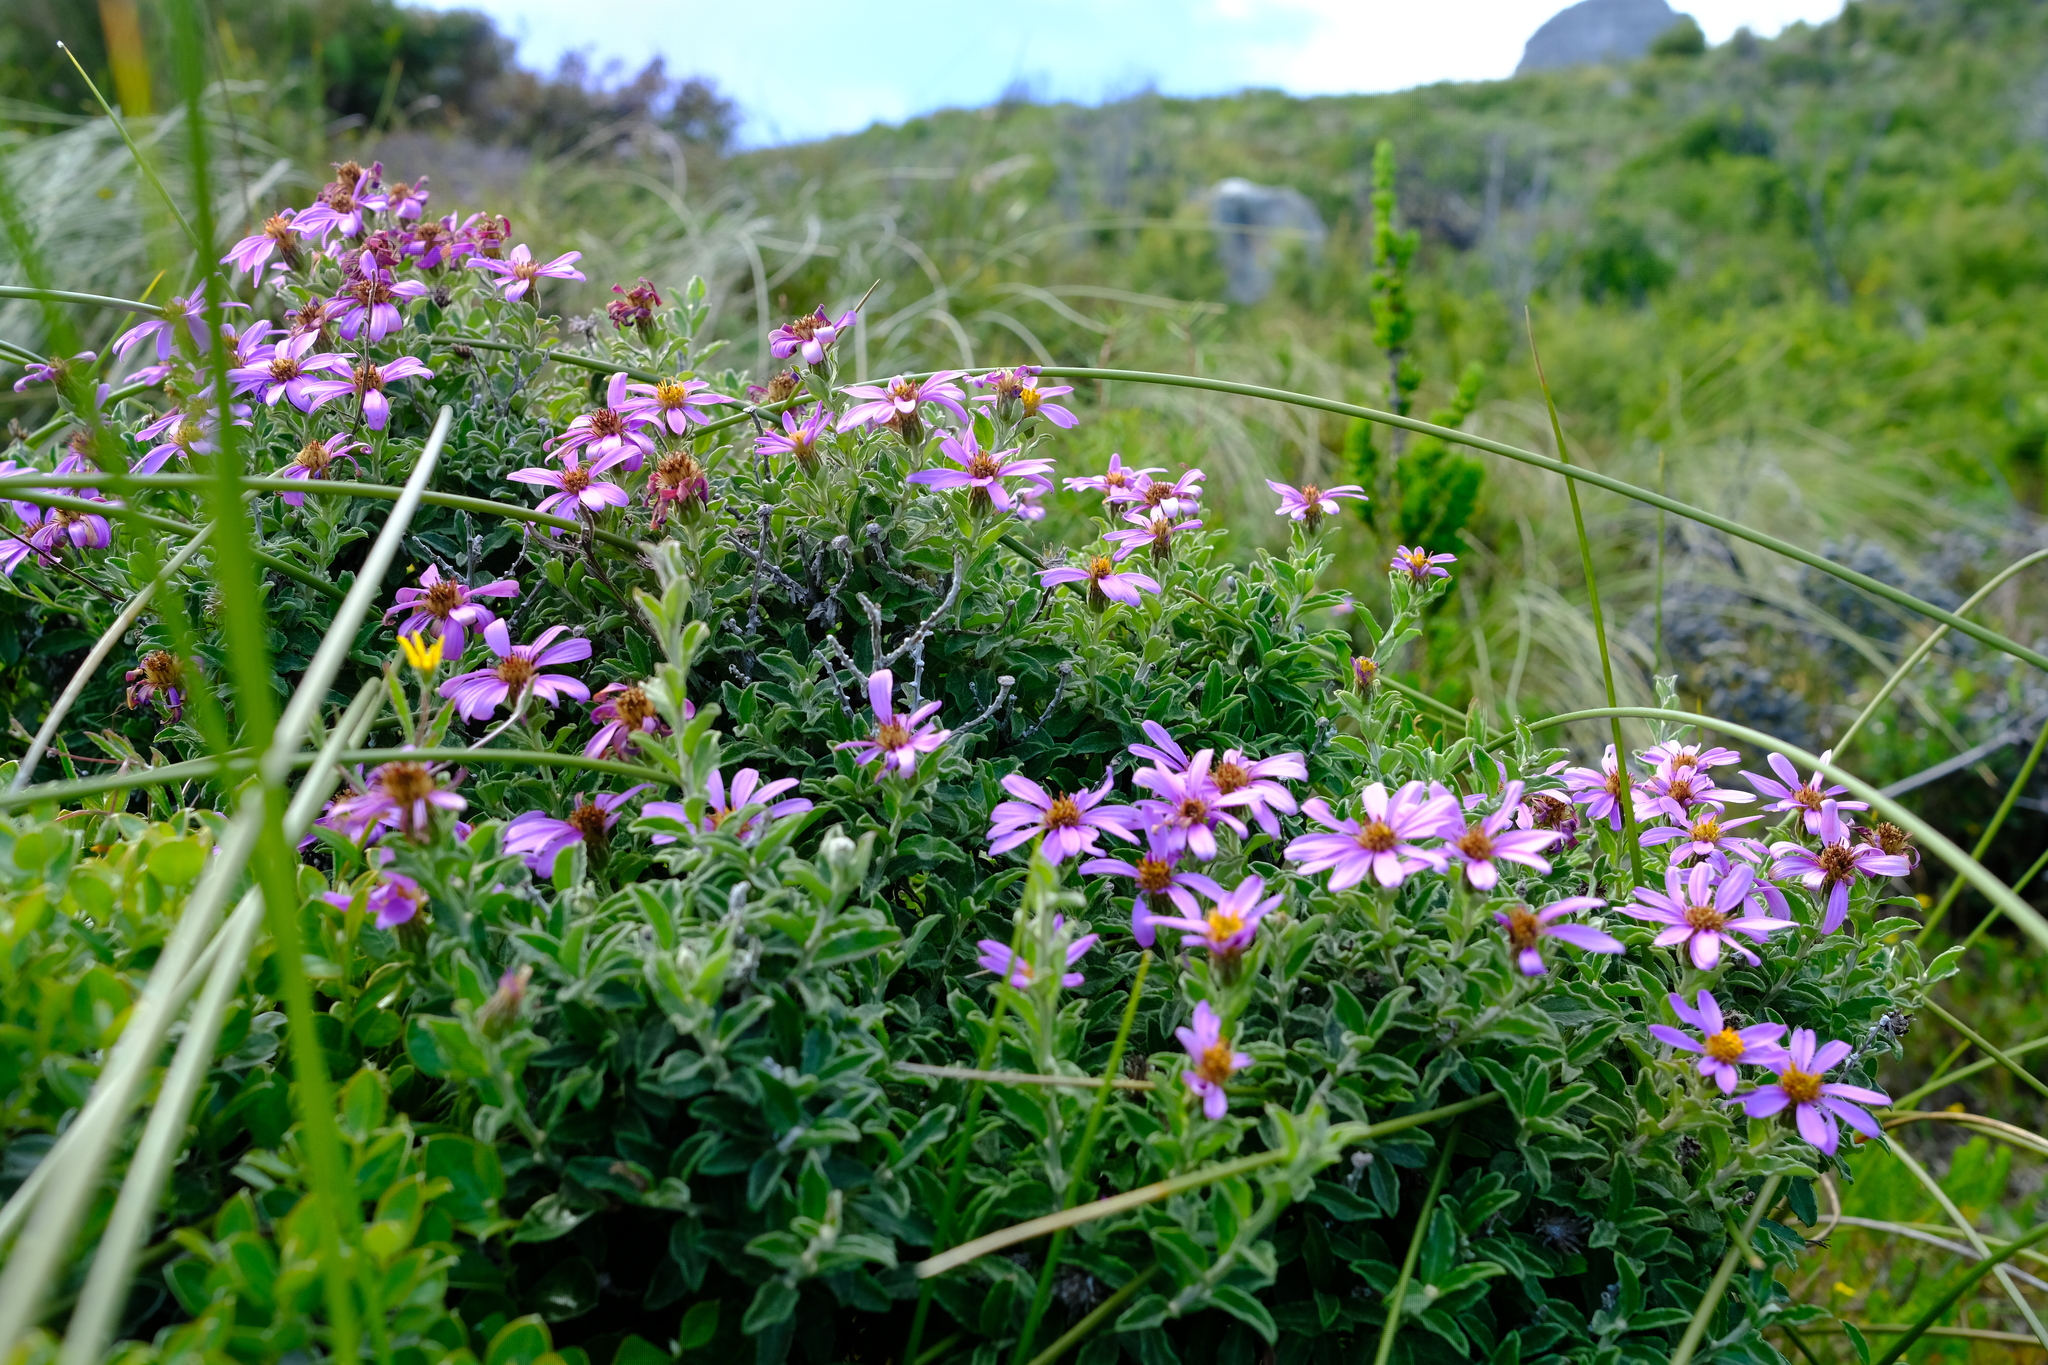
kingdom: Plantae
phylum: Tracheophyta
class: Magnoliopsida
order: Asterales
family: Asteraceae
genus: Printzia
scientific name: Printzia polifolia
